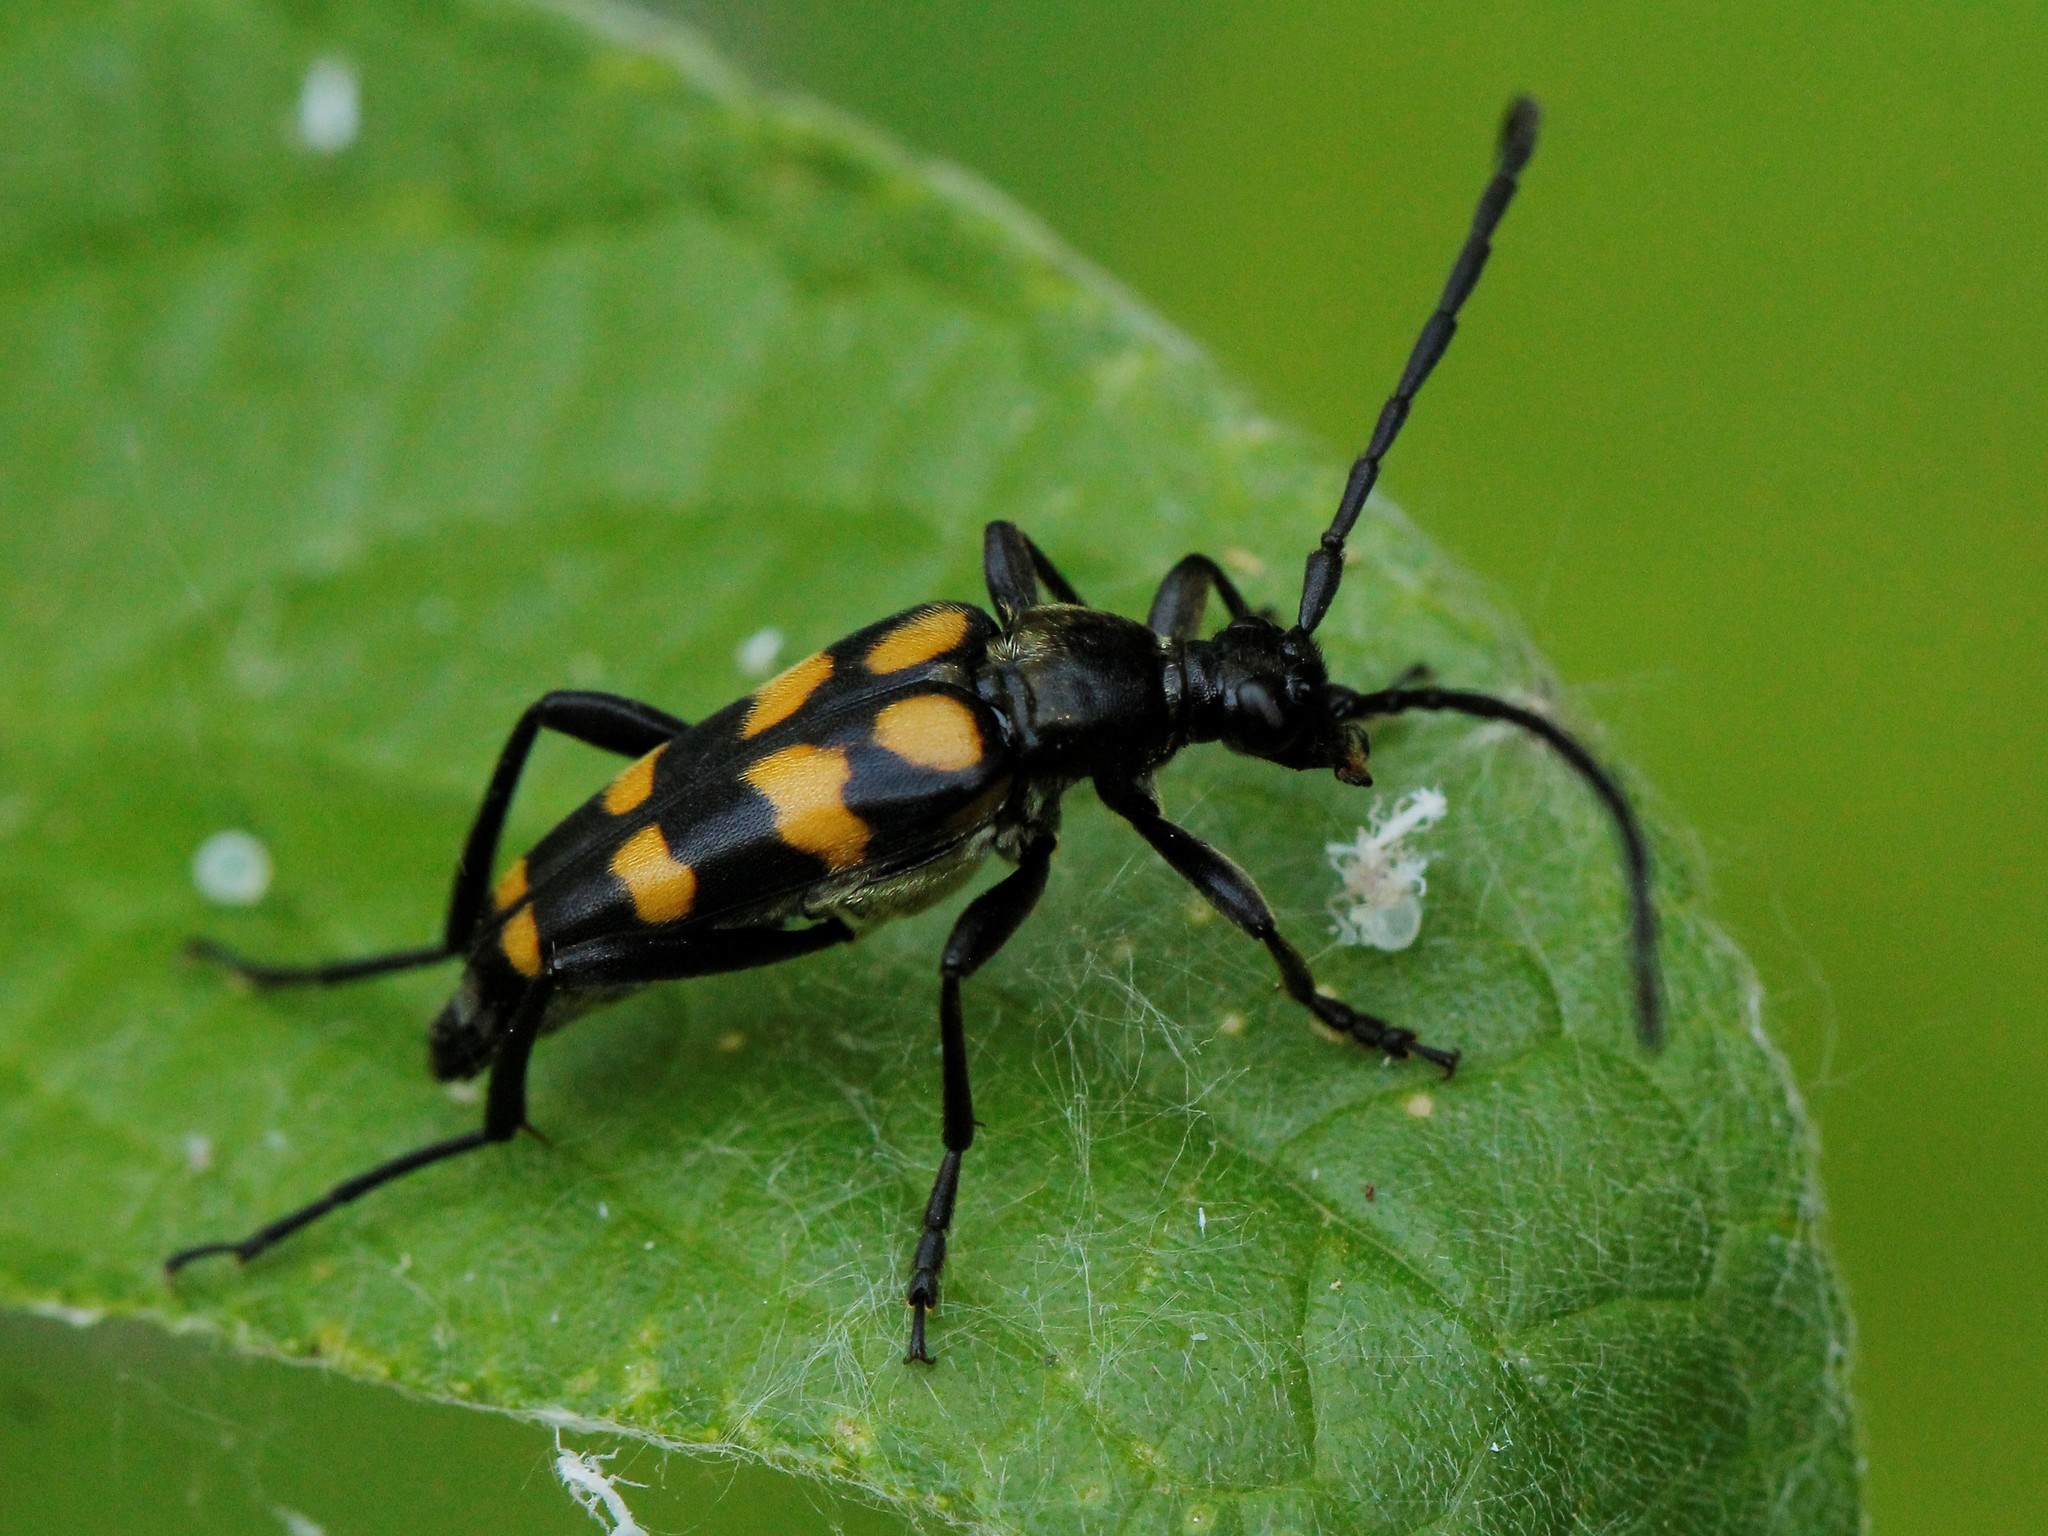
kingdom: Animalia
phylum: Arthropoda
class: Insecta
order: Coleoptera
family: Cerambycidae
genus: Leptura
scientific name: Leptura quadrifasciata
